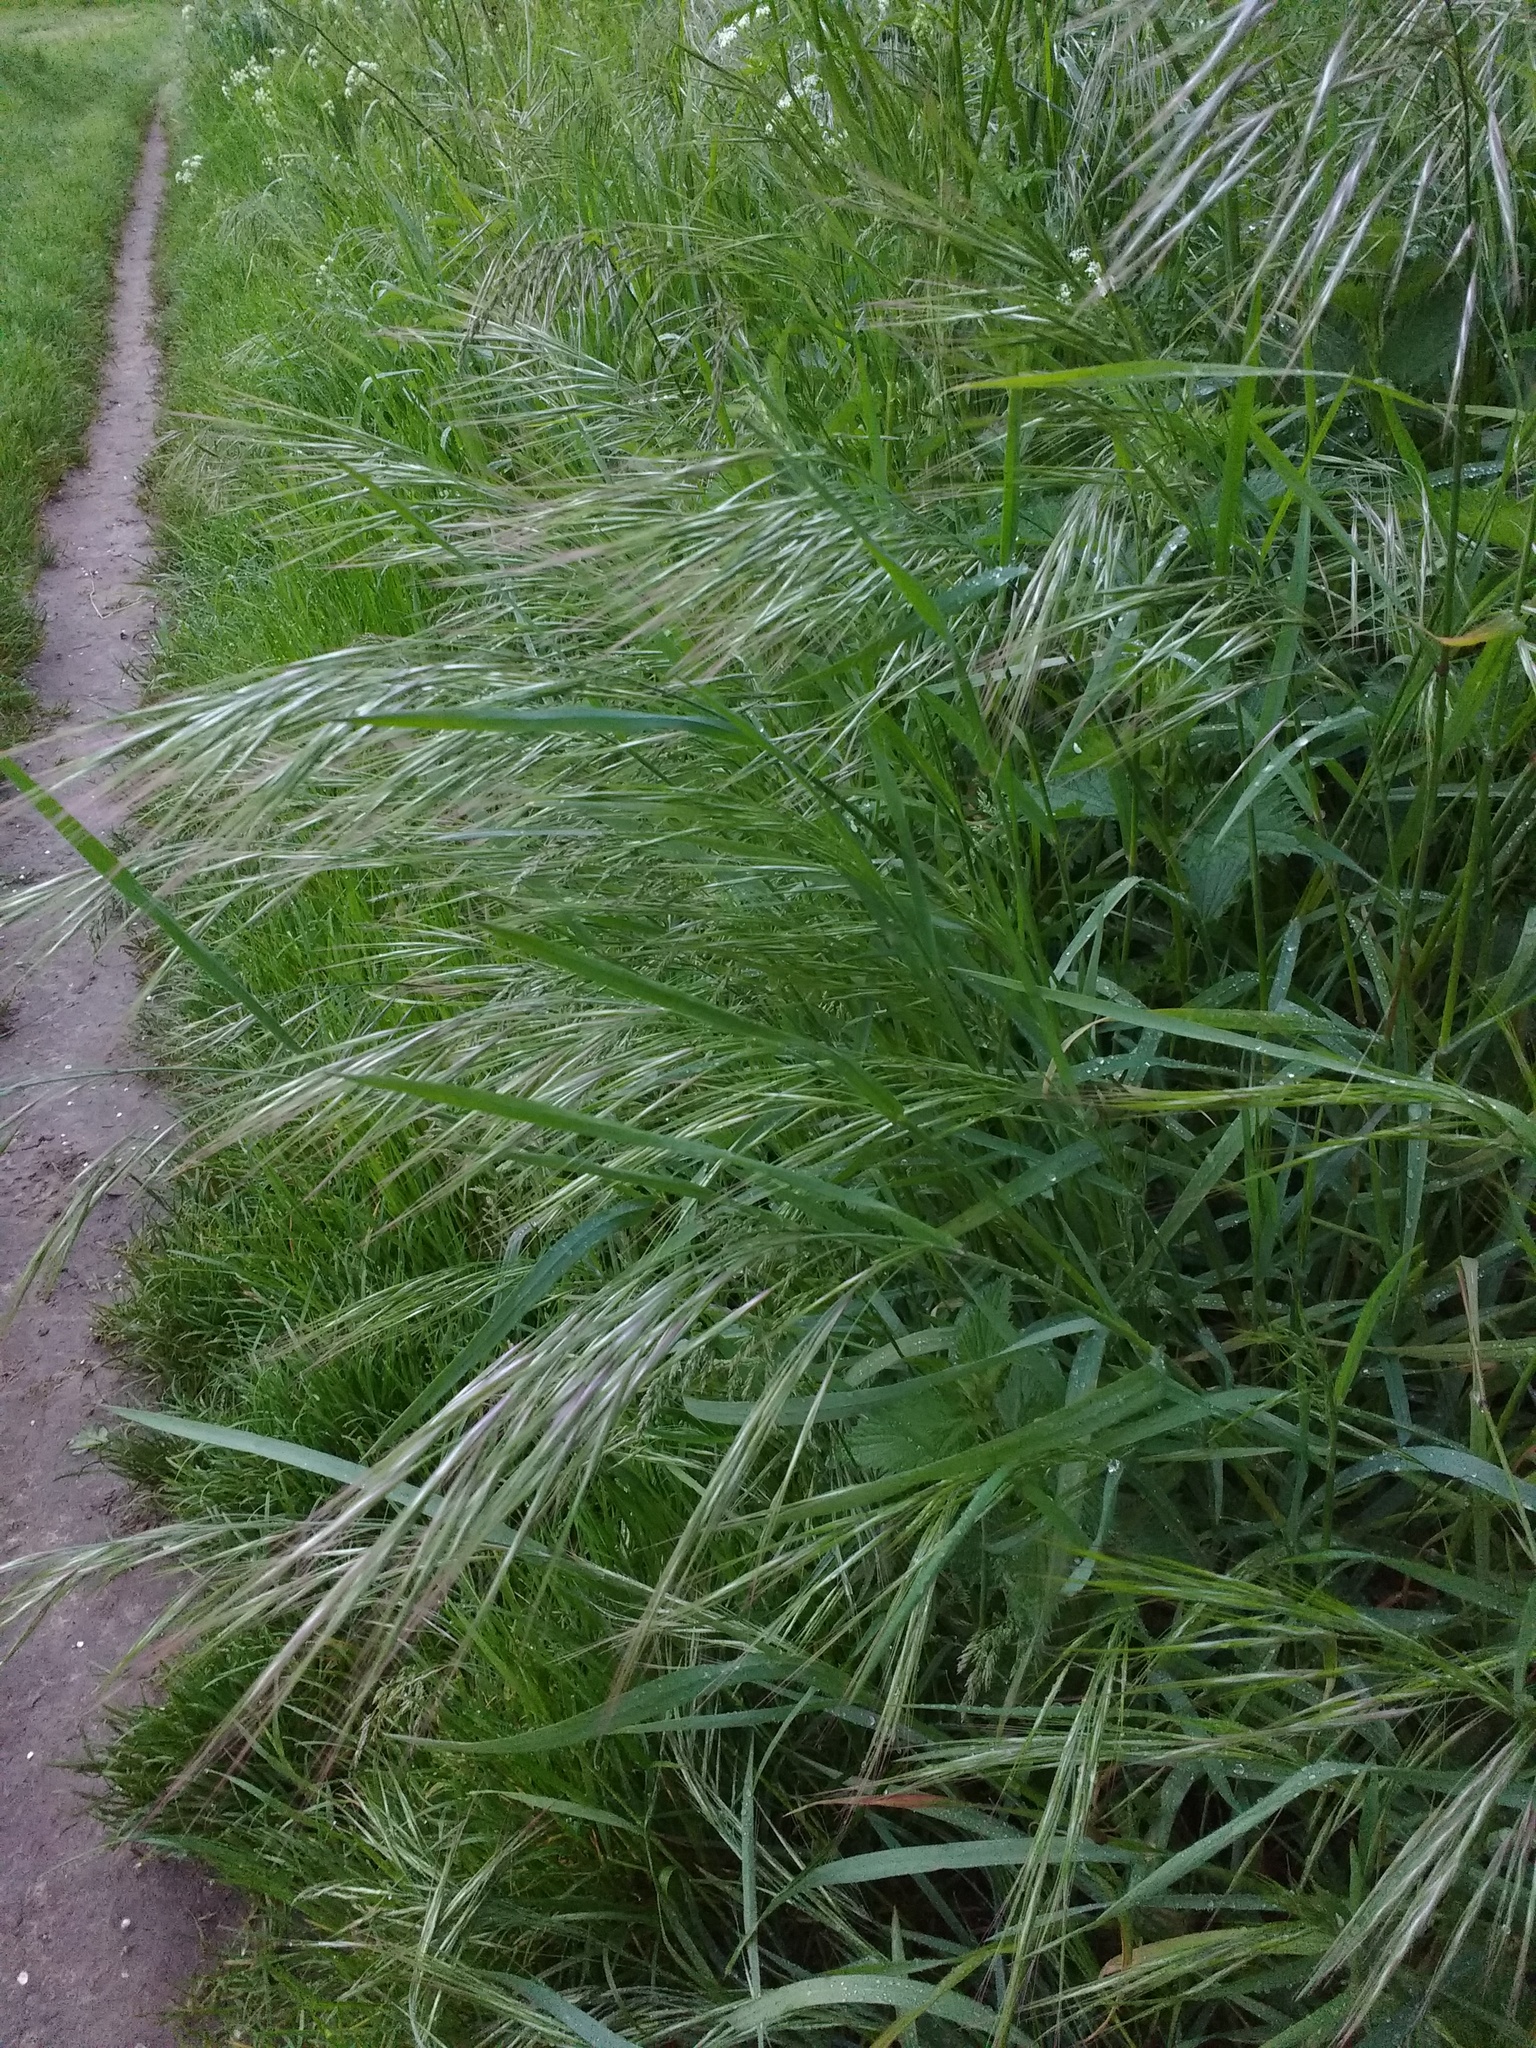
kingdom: Plantae
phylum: Tracheophyta
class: Liliopsida
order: Poales
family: Poaceae
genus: Bromus
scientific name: Bromus sterilis
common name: Poverty brome
